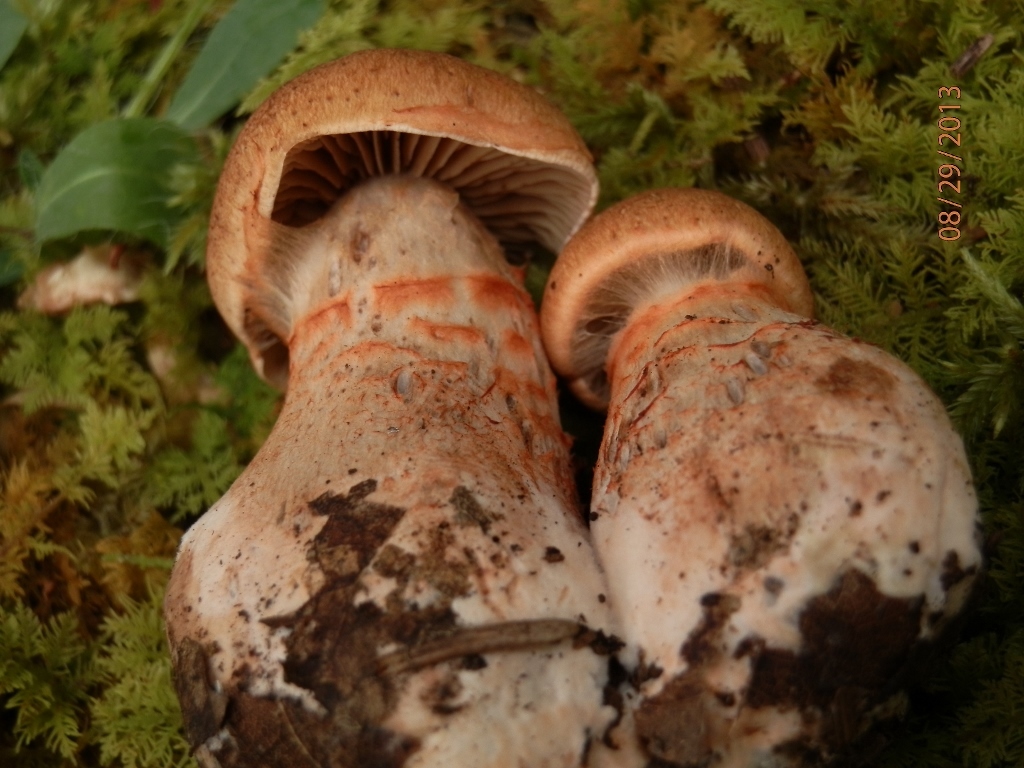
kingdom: Fungi
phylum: Basidiomycota
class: Agaricomycetes
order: Agaricales
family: Cortinariaceae
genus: Cortinarius
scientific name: Cortinarius armillatus
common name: Red banded webcap
